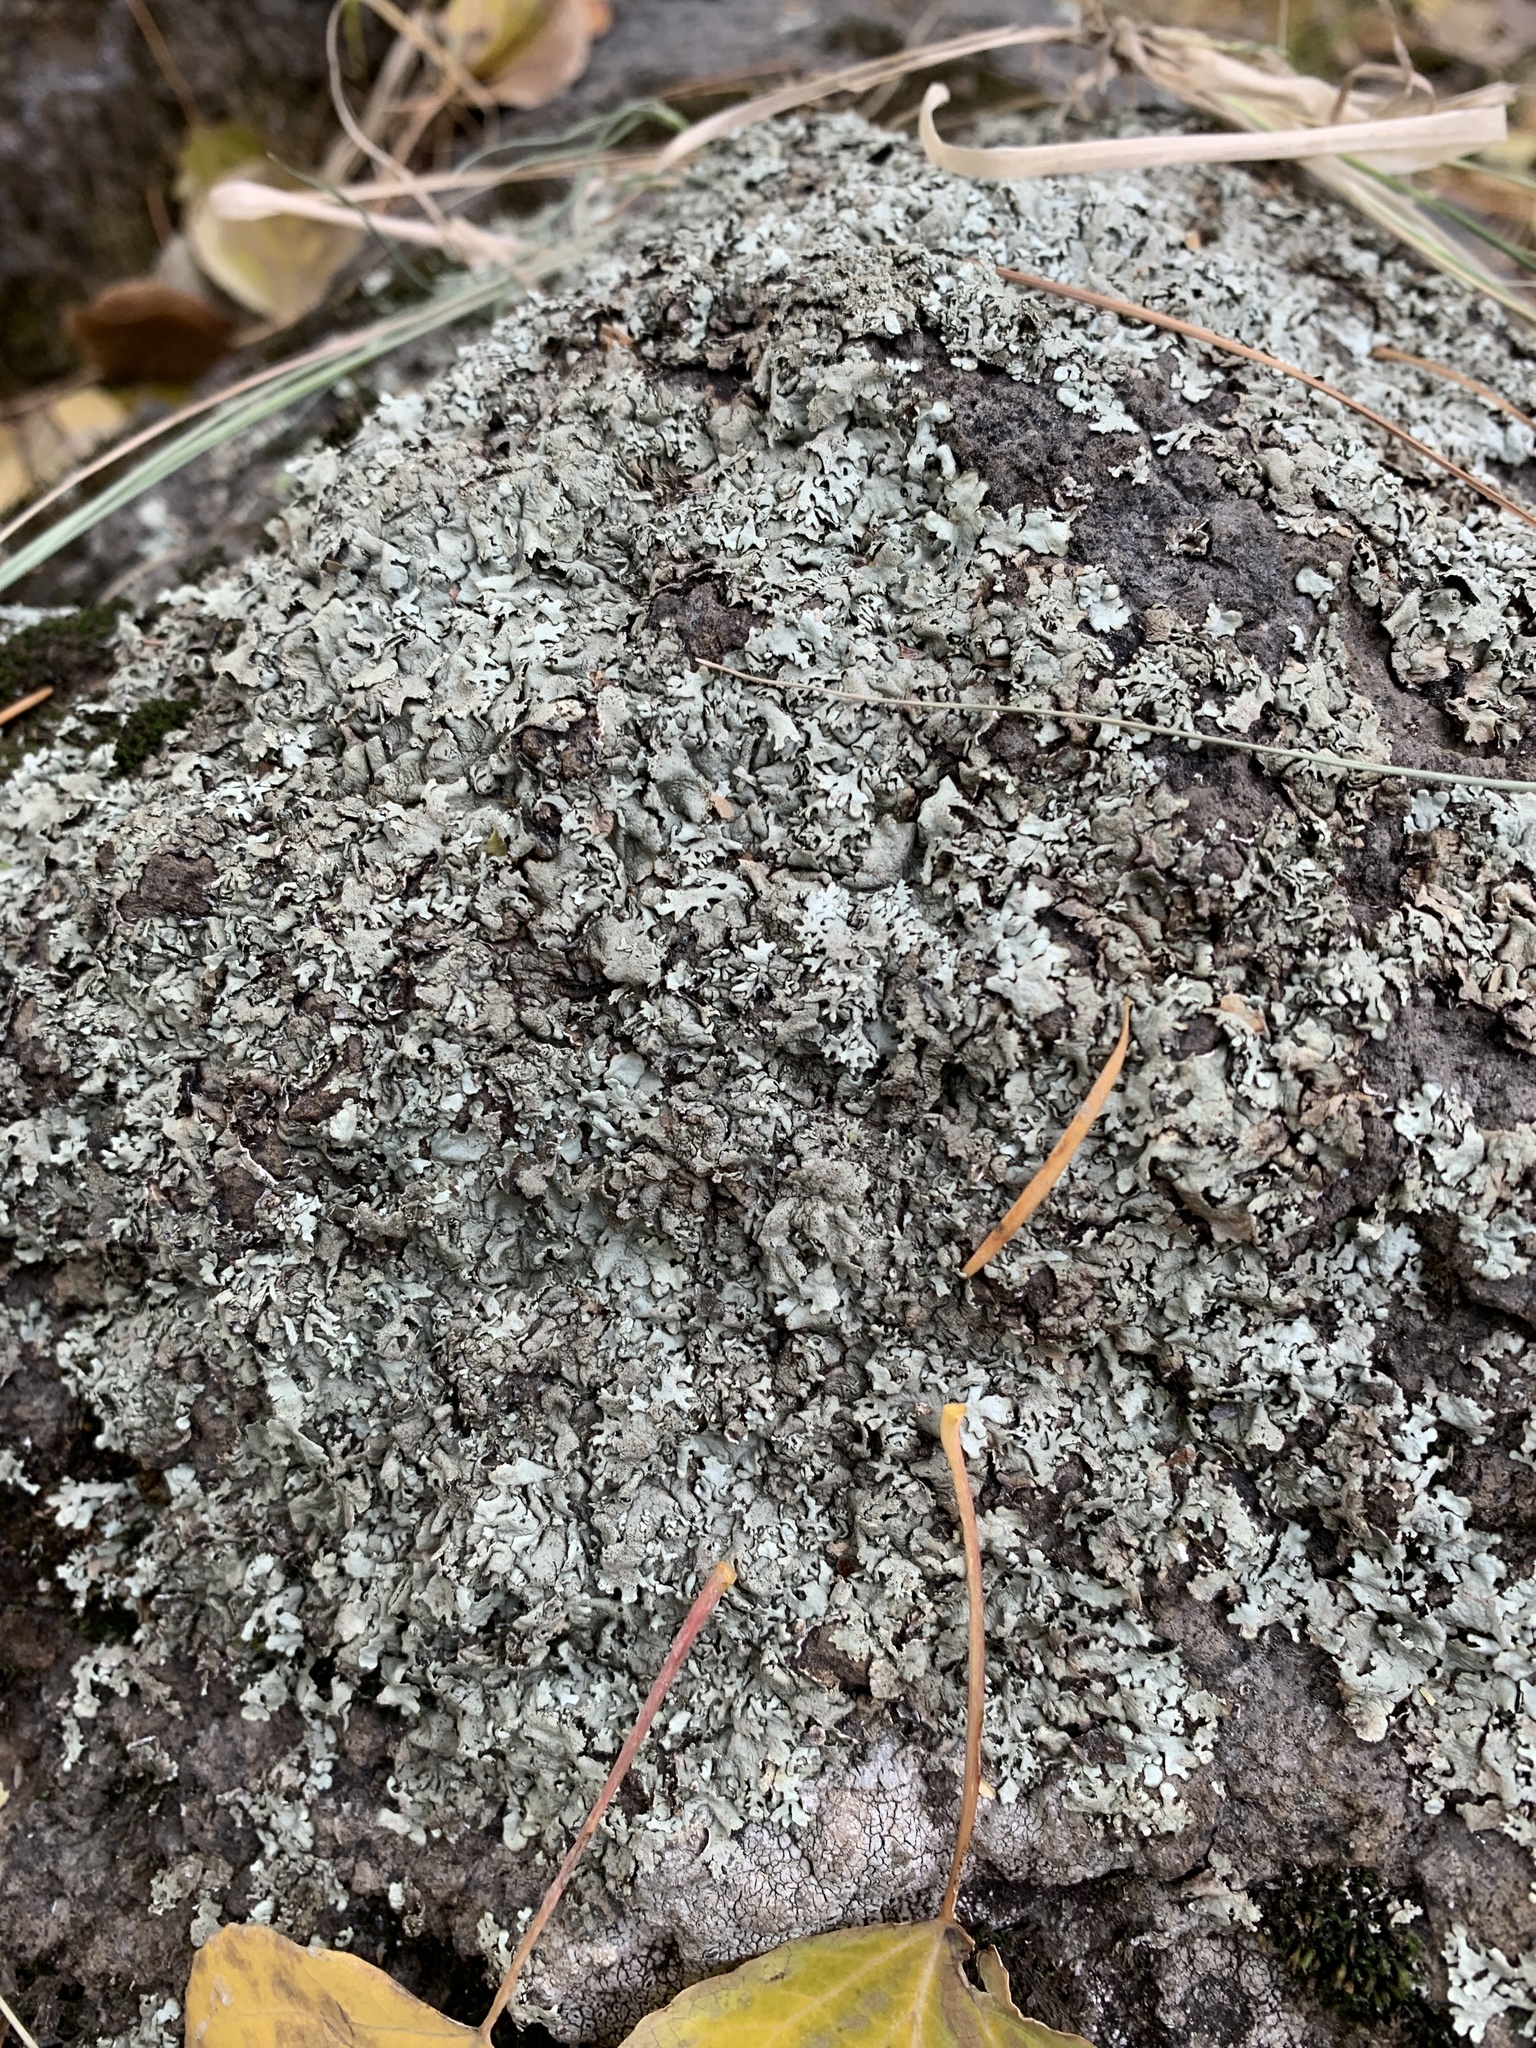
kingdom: Fungi
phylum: Ascomycota
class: Lecanoromycetes
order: Lecanorales
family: Parmeliaceae
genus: Xanthoparmelia
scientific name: Xanthoparmelia cumberlandia
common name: Cumberland rock shield
